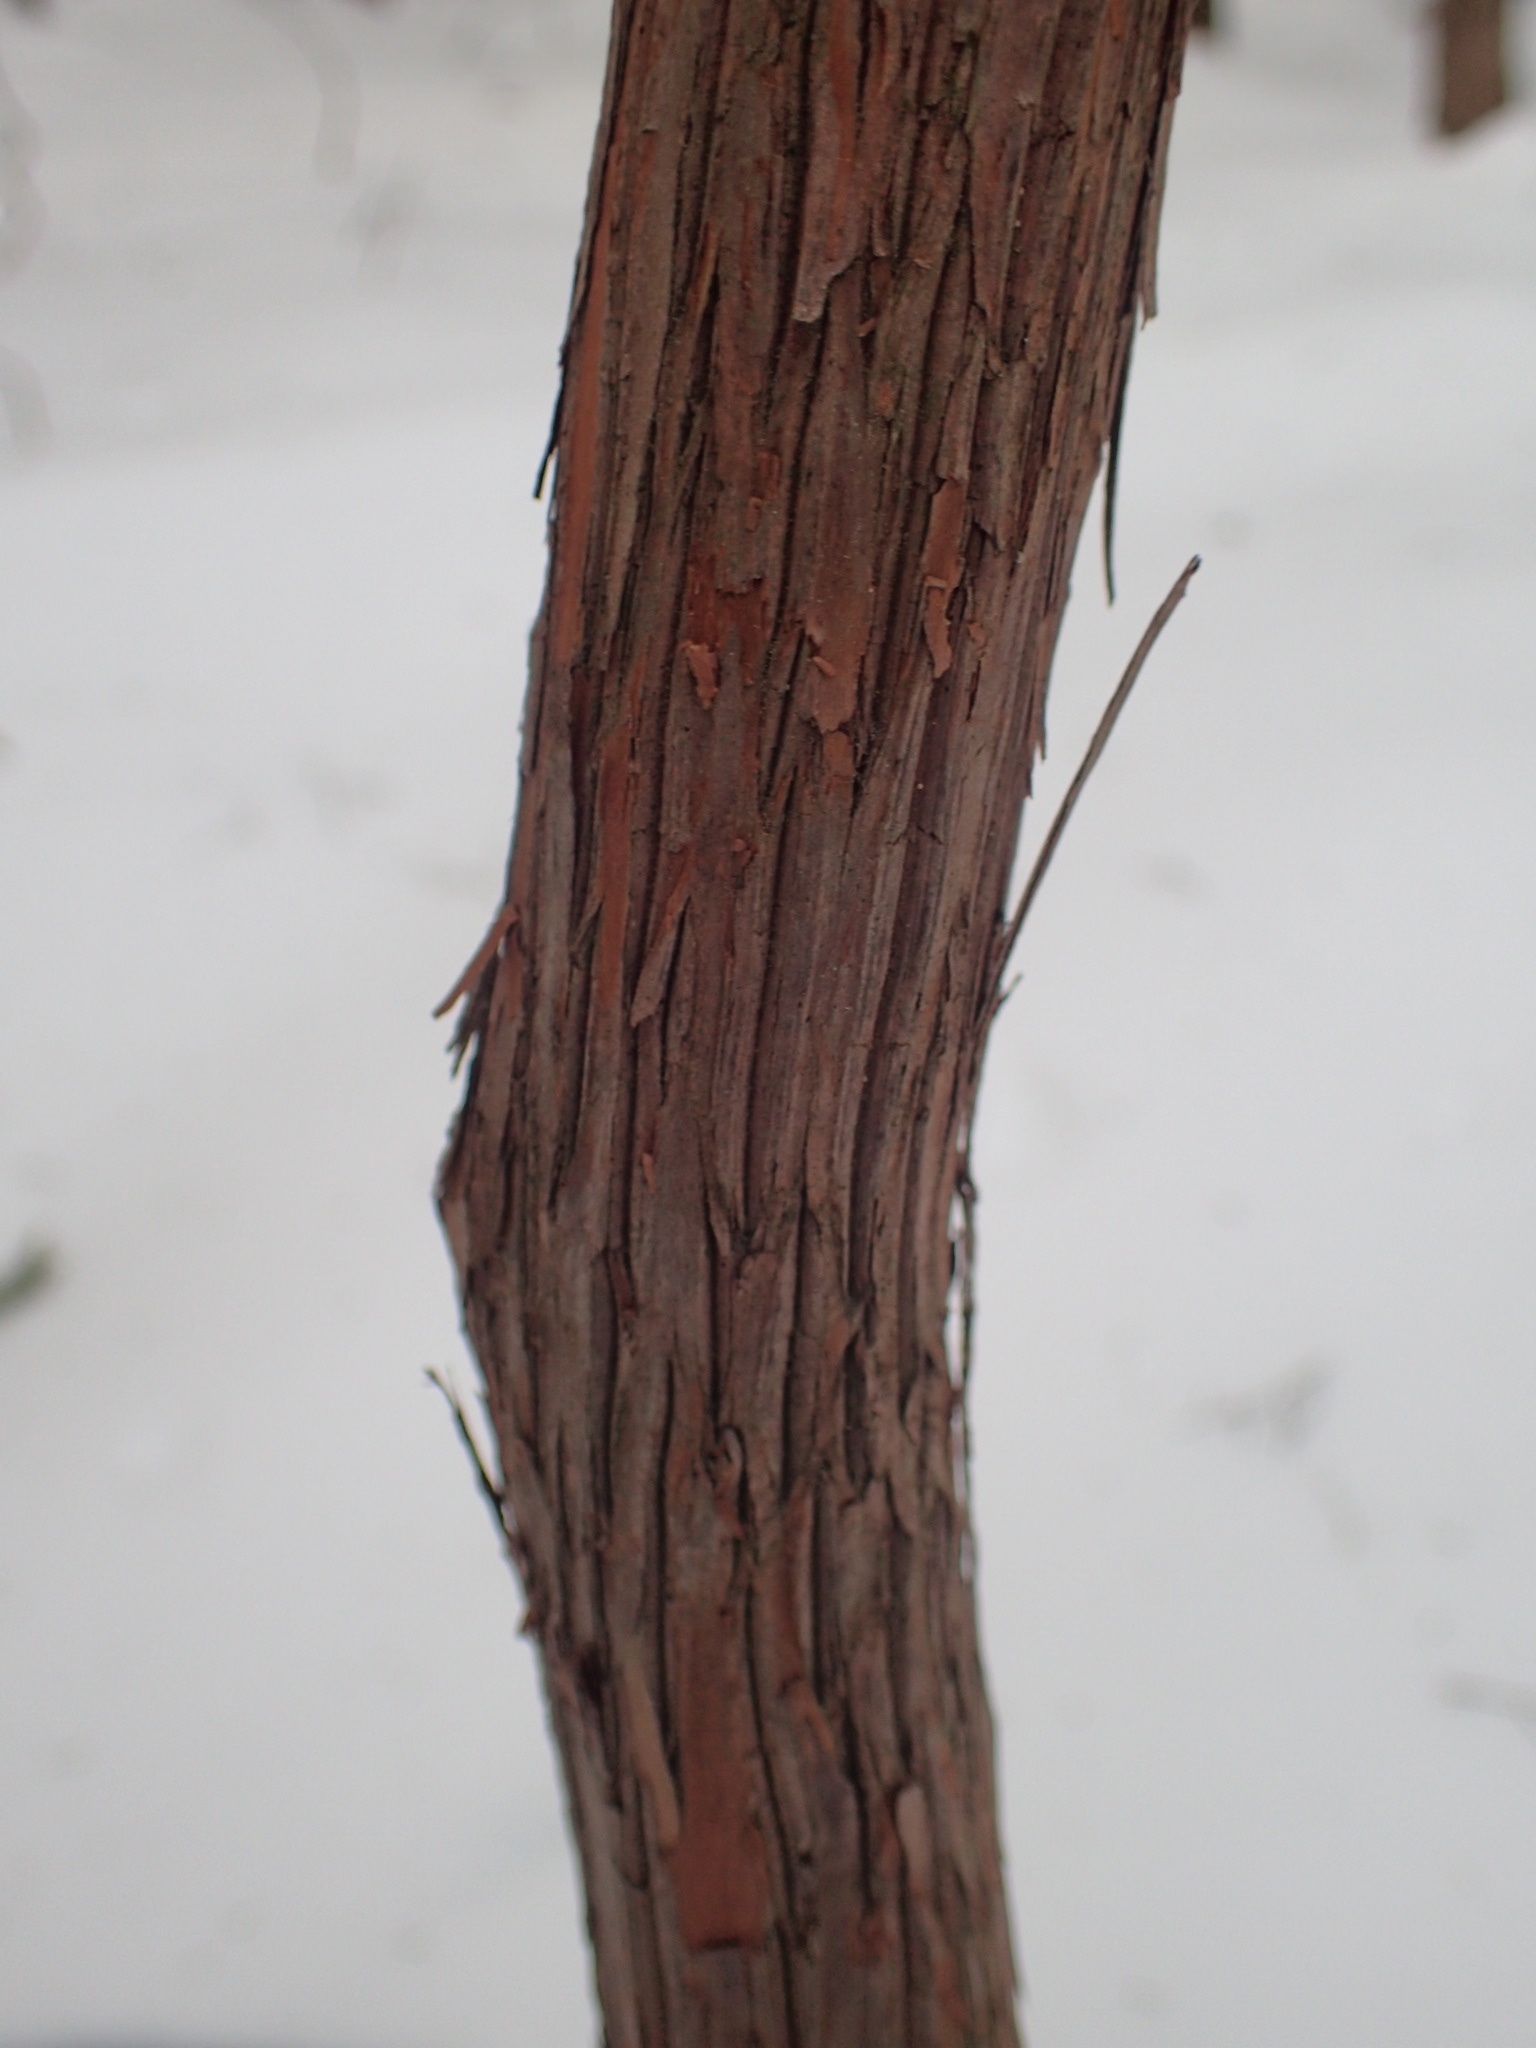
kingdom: Plantae
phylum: Tracheophyta
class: Magnoliopsida
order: Ericales
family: Ericaceae
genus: Kalmia
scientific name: Kalmia latifolia
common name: Mountain-laurel
